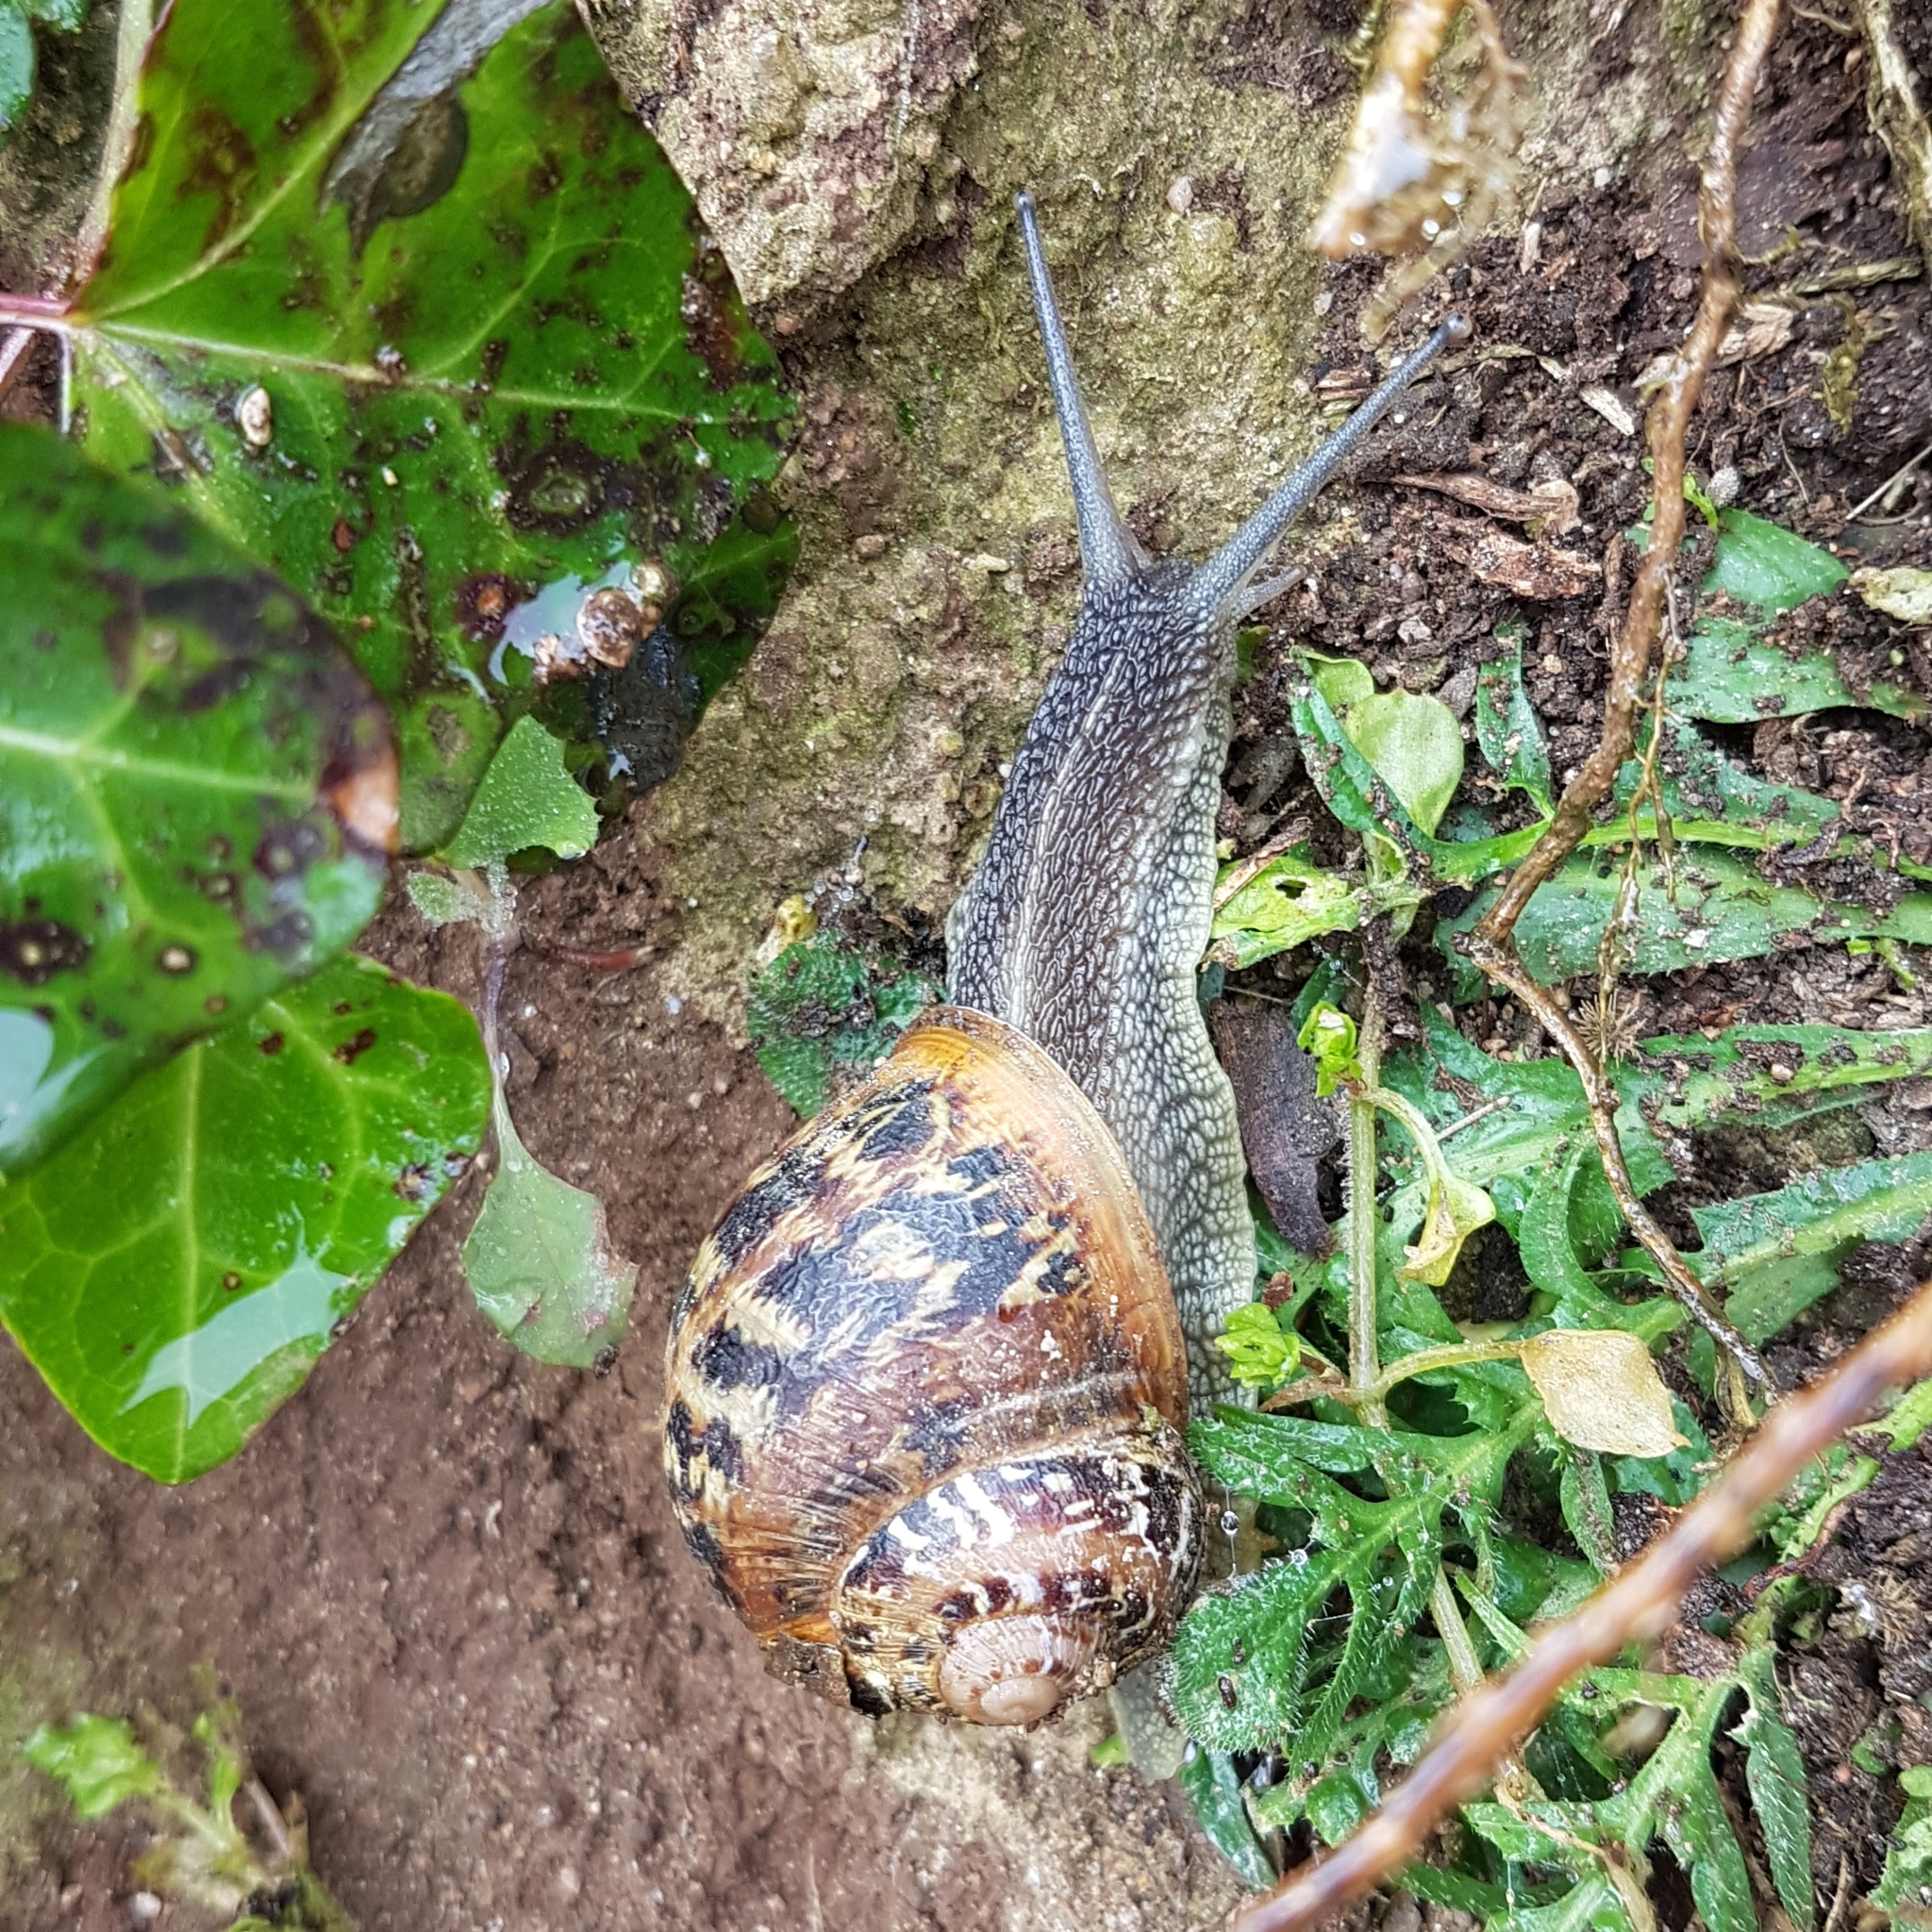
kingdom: Animalia
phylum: Mollusca
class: Gastropoda
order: Stylommatophora
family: Helicidae
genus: Cornu
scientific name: Cornu aspersum
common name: Brown garden snail
